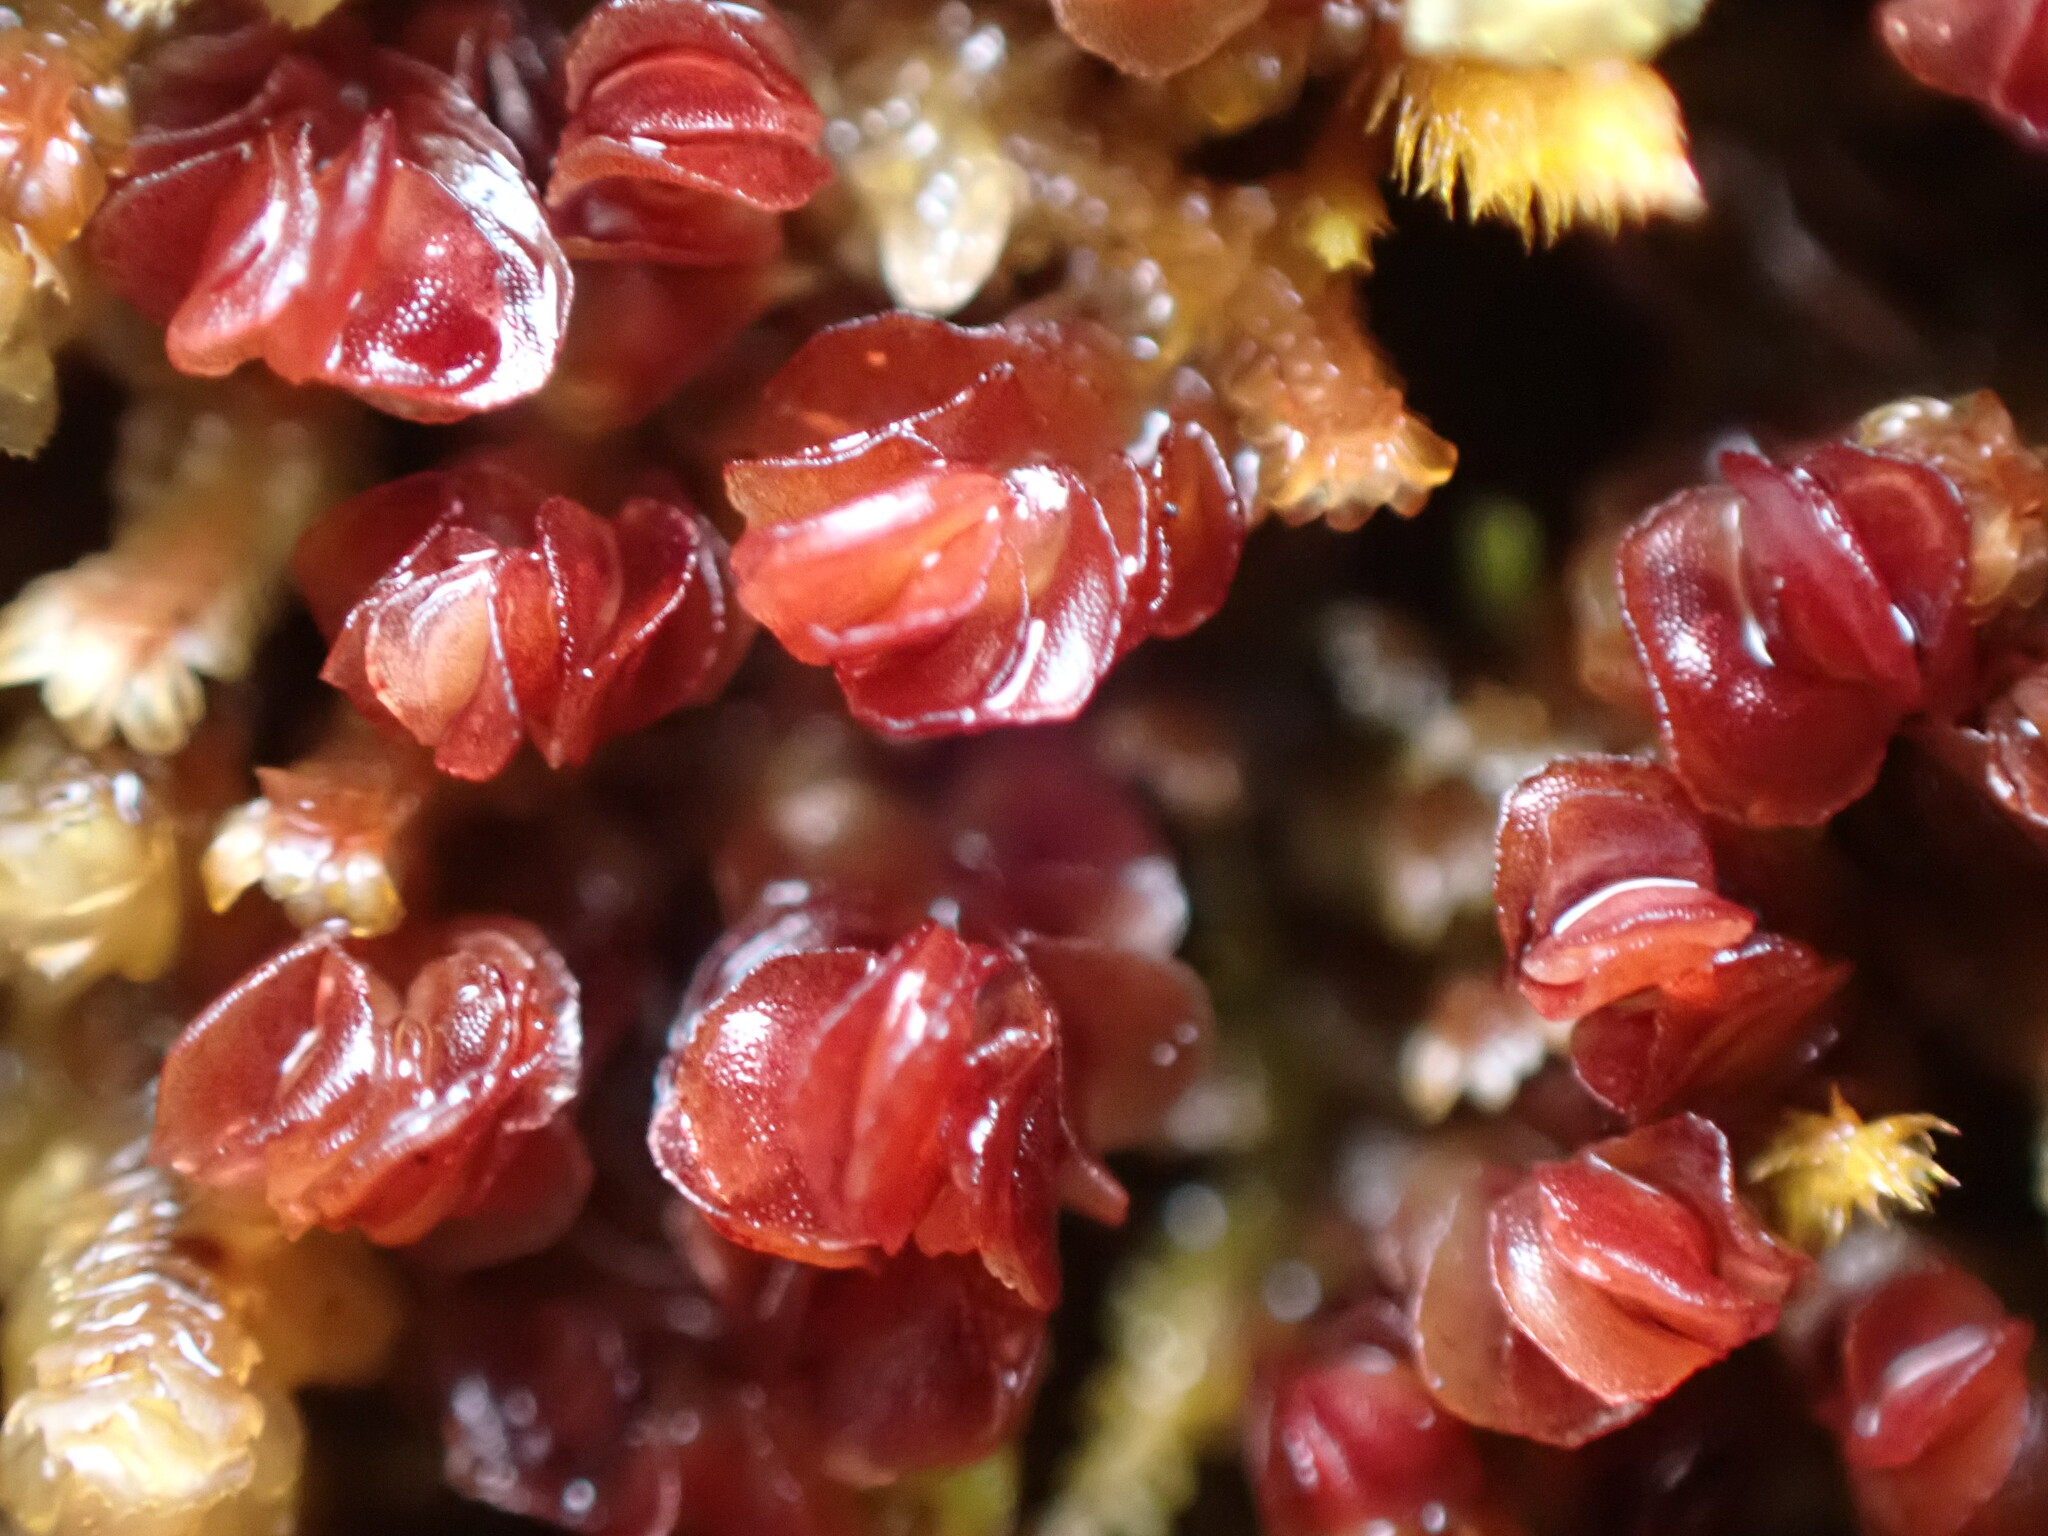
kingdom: Plantae
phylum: Marchantiophyta
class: Jungermanniopsida
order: Jungermanniales
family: Myliaceae
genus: Mylia
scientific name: Mylia taylorii
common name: Taylor s flapwort
